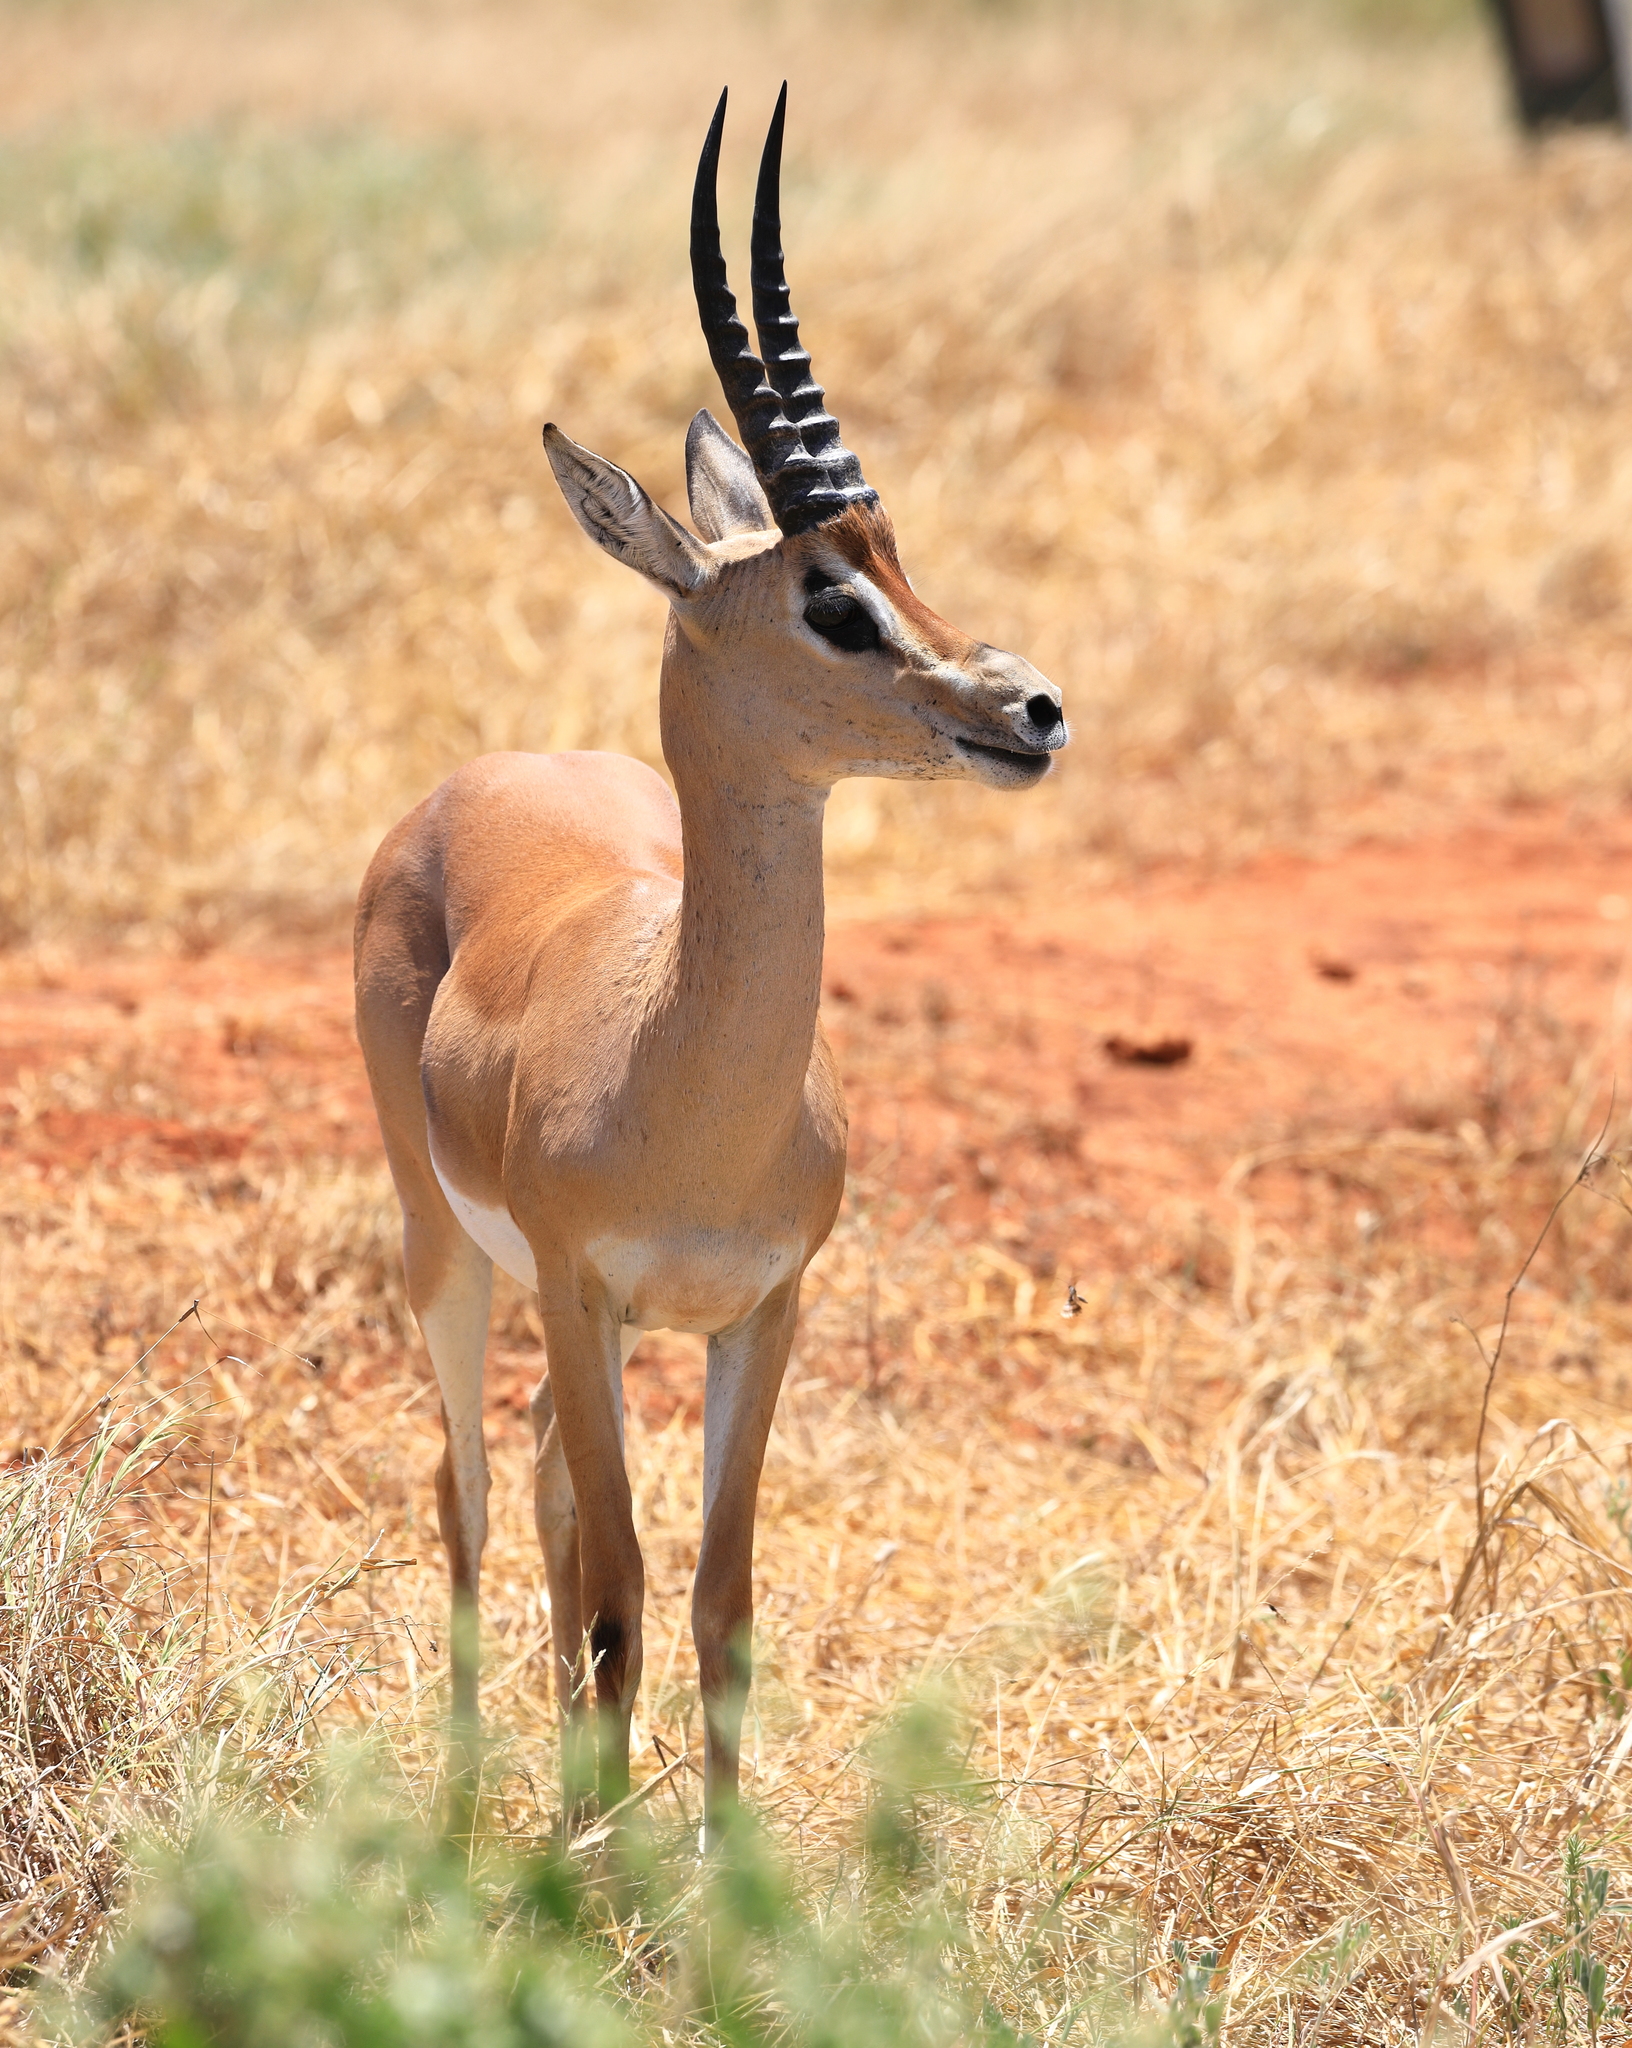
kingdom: Animalia
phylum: Chordata
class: Mammalia
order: Artiodactyla
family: Bovidae
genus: Nanger
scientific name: Nanger granti
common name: Grant's gazelle
